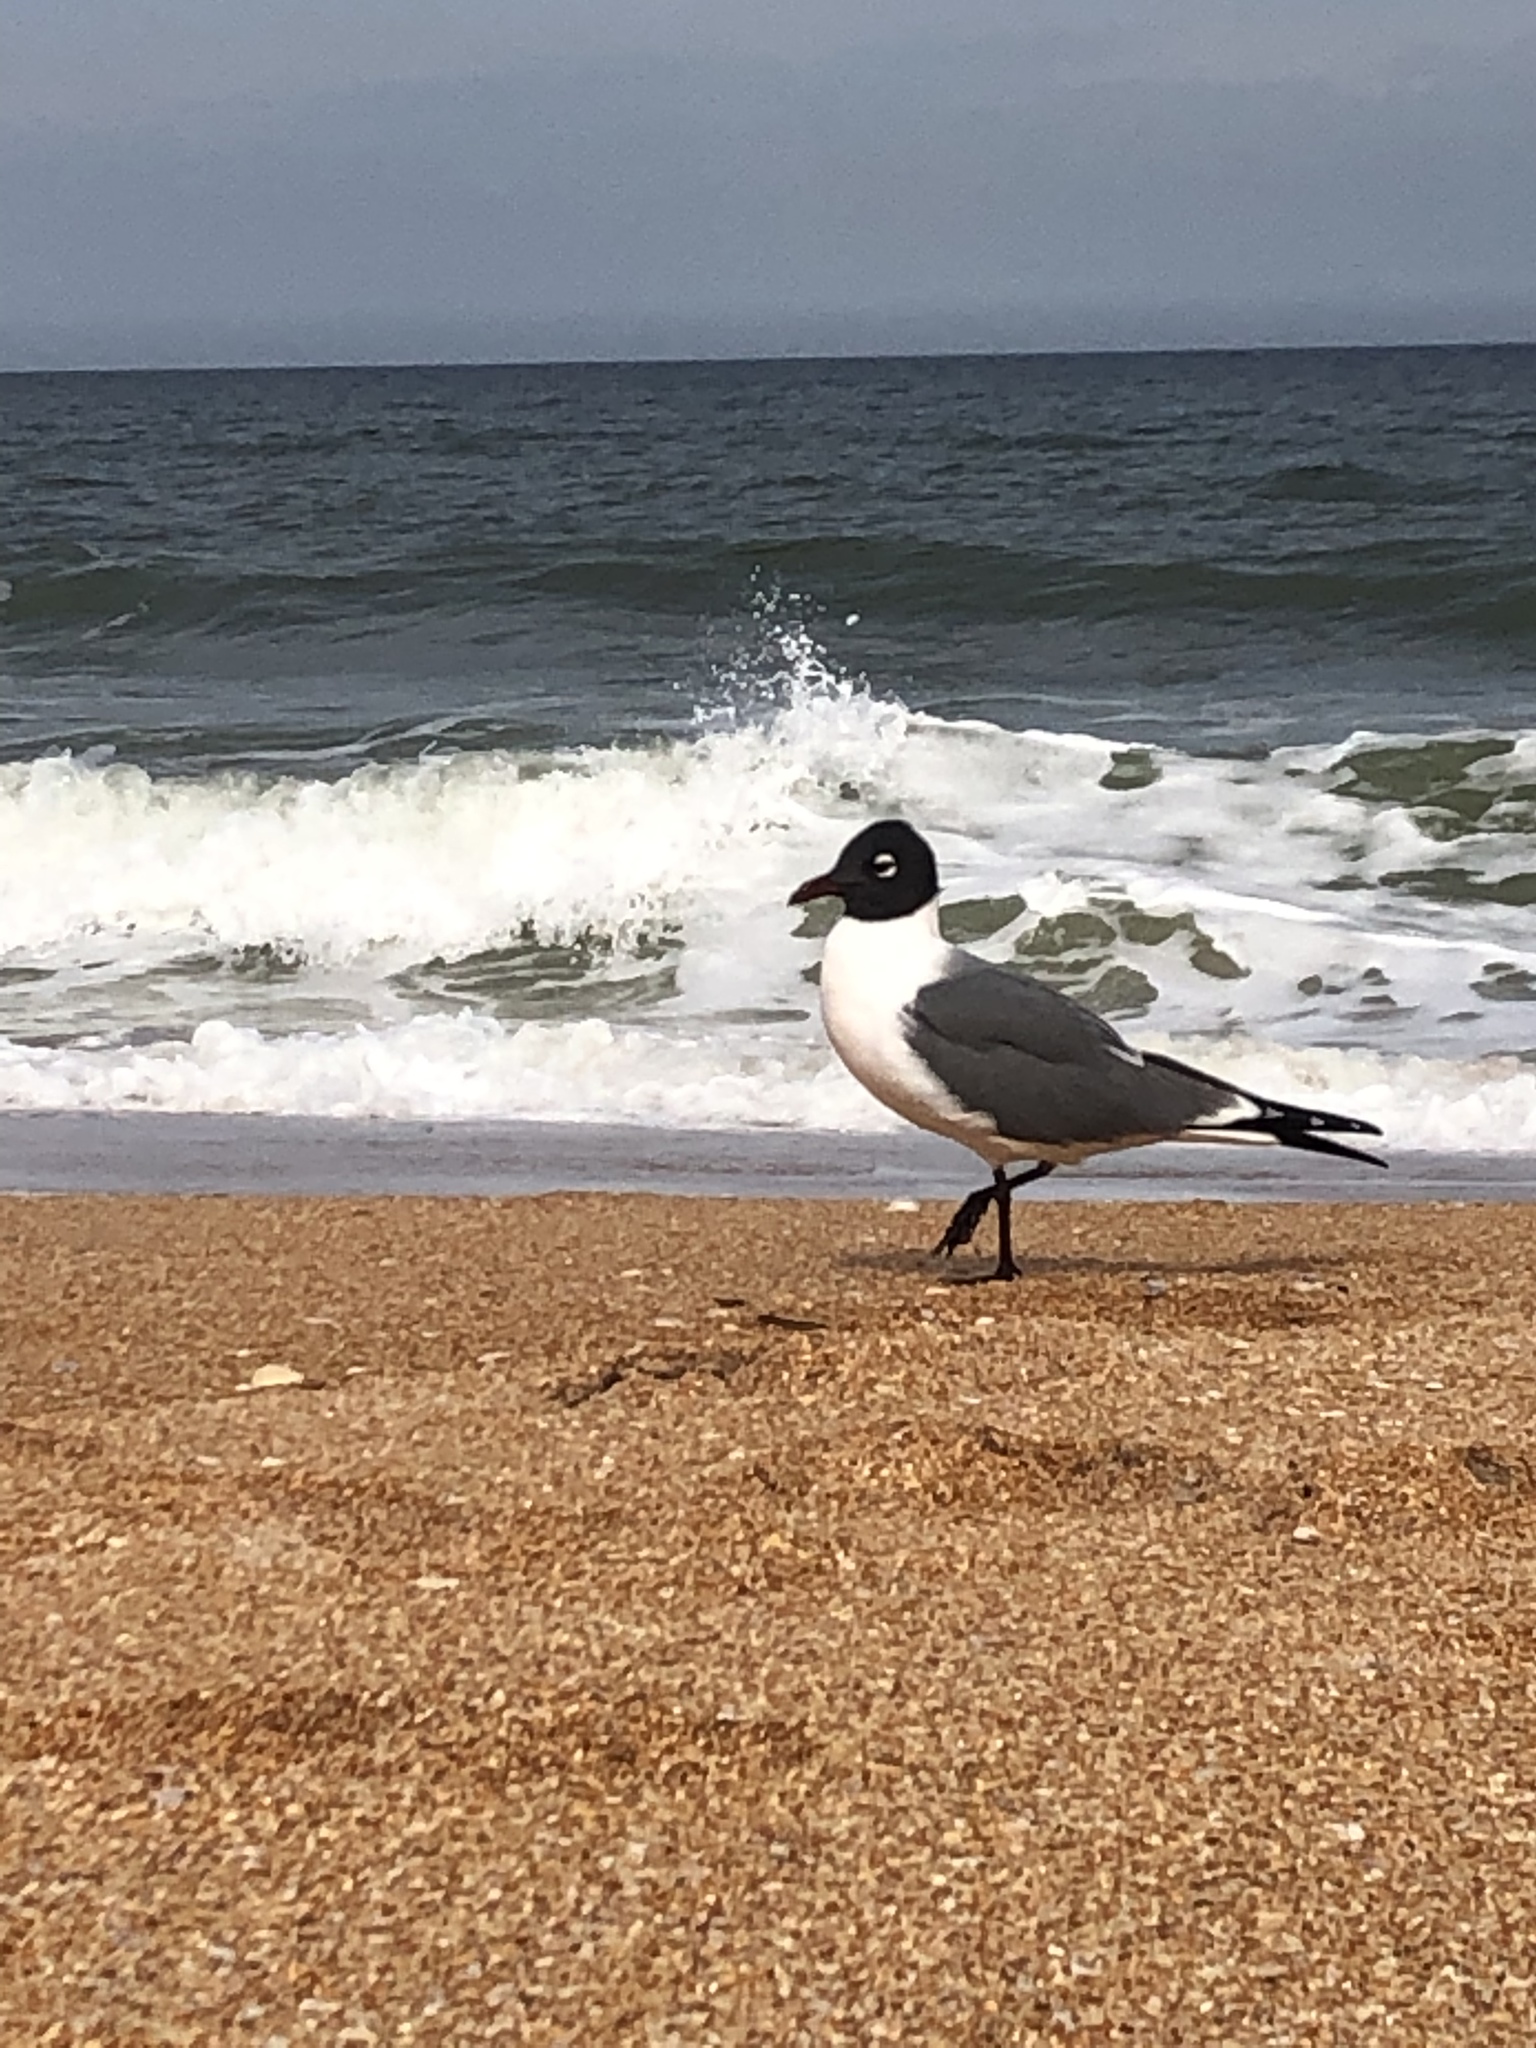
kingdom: Animalia
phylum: Chordata
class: Aves
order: Charadriiformes
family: Laridae
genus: Leucophaeus
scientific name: Leucophaeus atricilla
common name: Laughing gull
